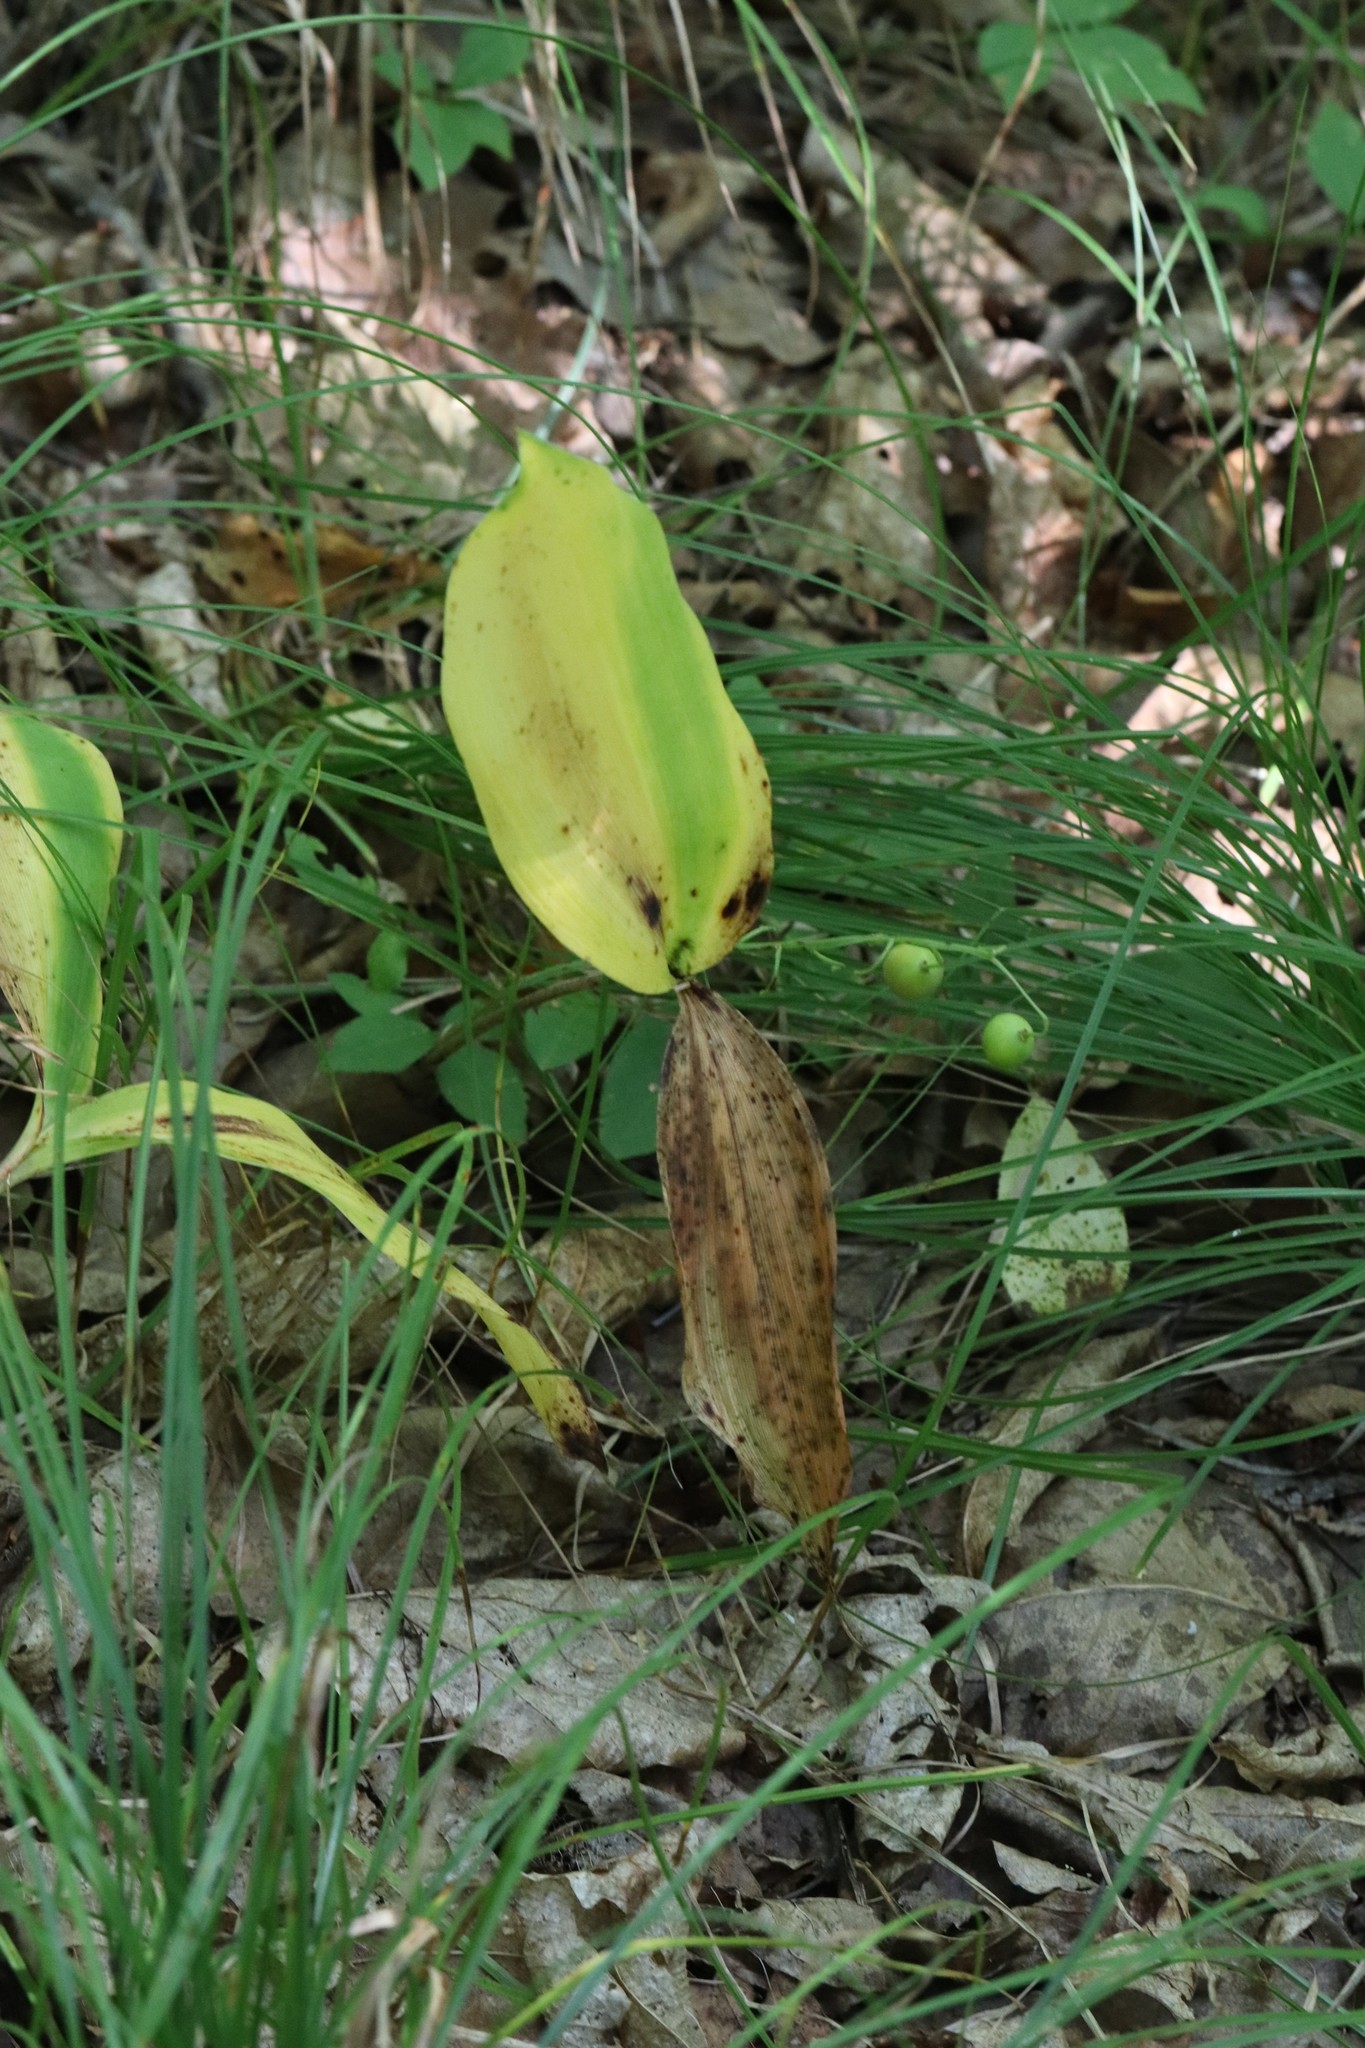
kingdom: Plantae
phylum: Tracheophyta
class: Liliopsida
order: Asparagales
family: Asparagaceae
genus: Convallaria
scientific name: Convallaria keiskei
